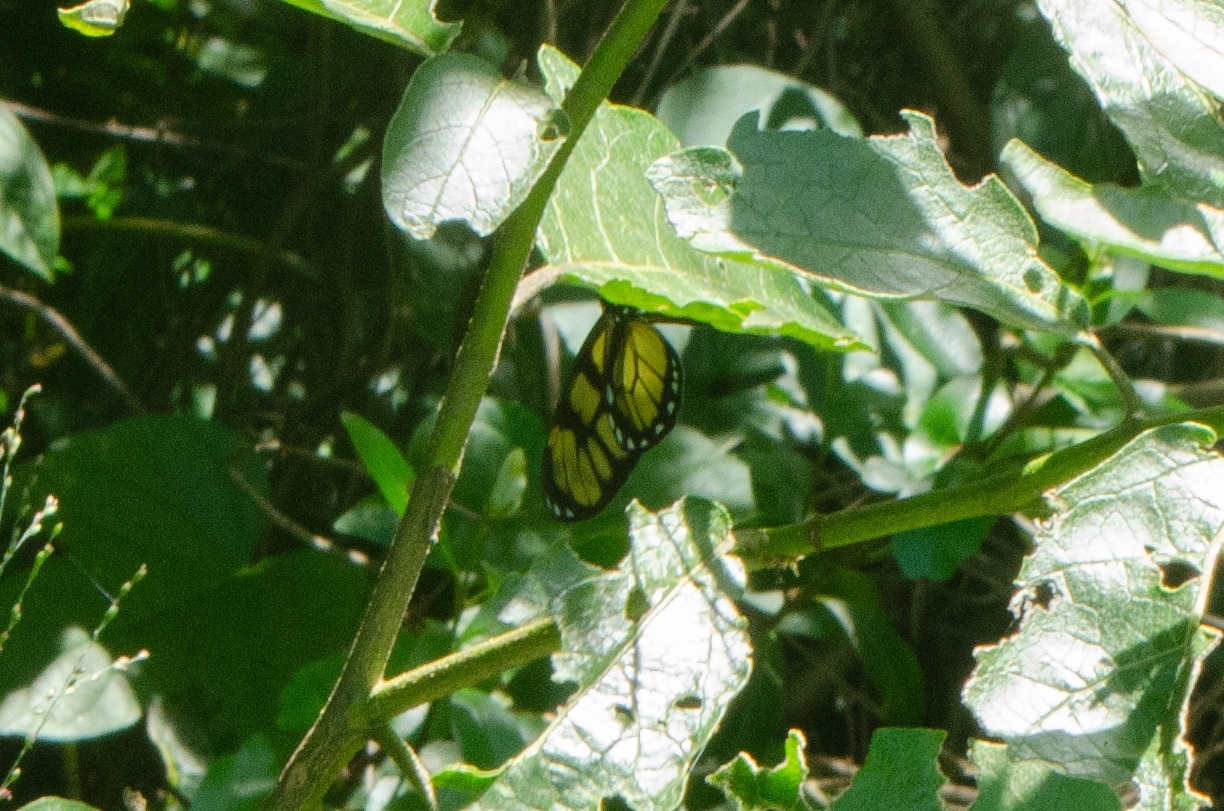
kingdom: Animalia
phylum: Arthropoda
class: Insecta
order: Lepidoptera
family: Nymphalidae
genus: Dircenna
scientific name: Dircenna dero
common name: Dero clearwing
